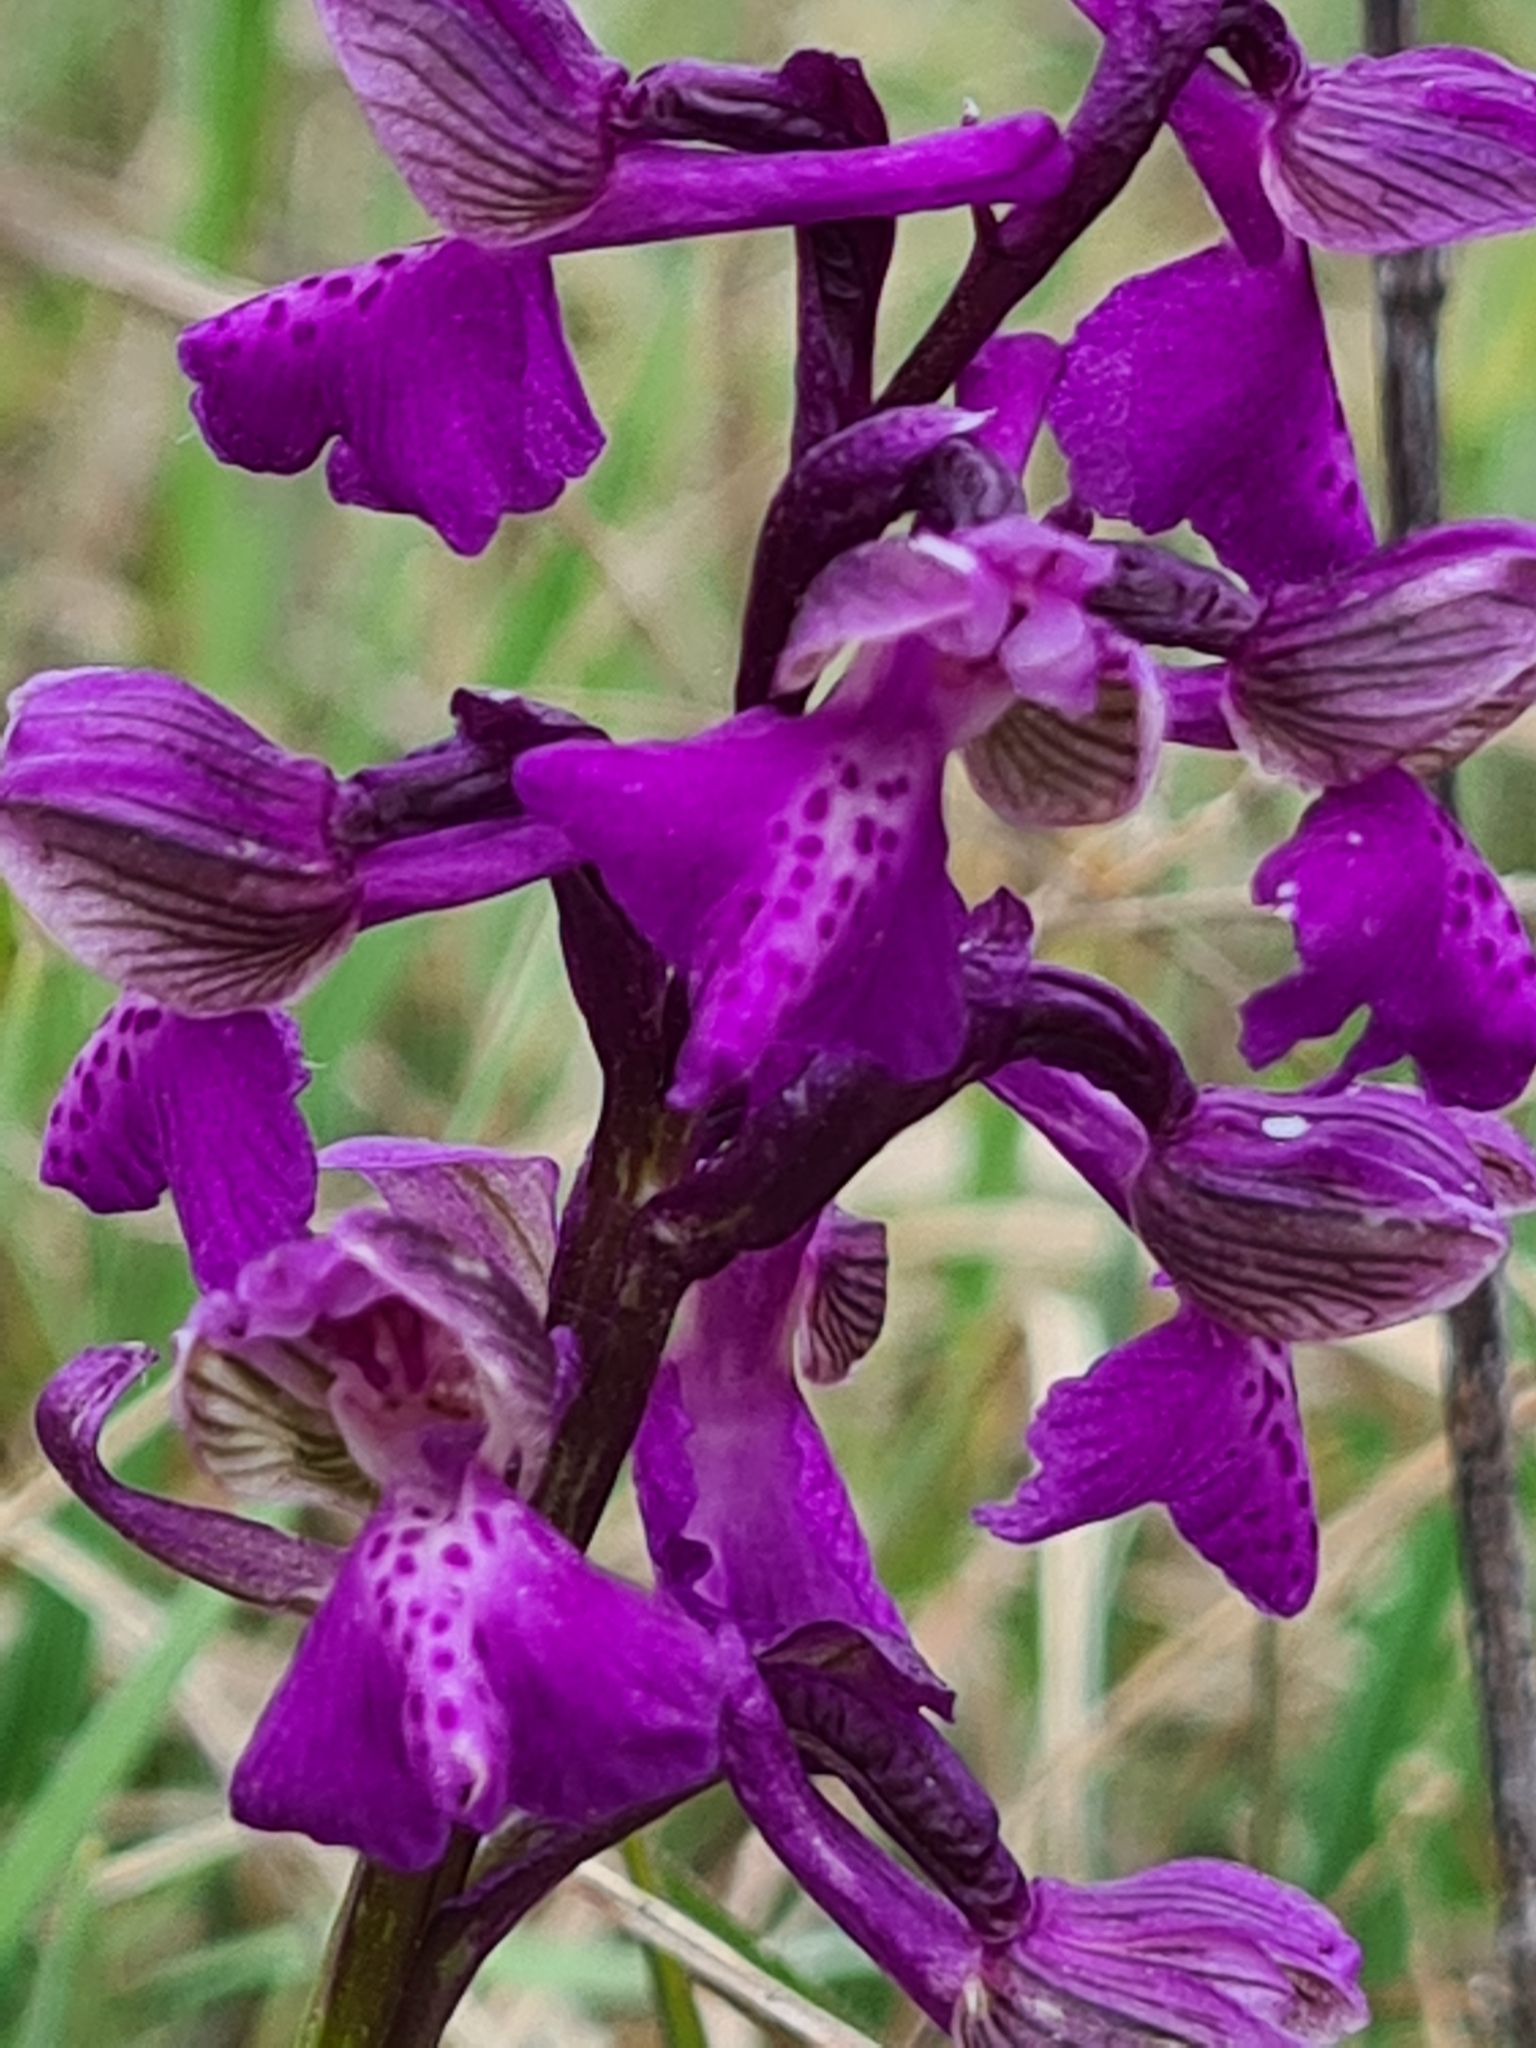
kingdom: Plantae
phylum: Tracheophyta
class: Liliopsida
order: Asparagales
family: Orchidaceae
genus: Anacamptis
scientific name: Anacamptis morio
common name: Green-winged orchid
